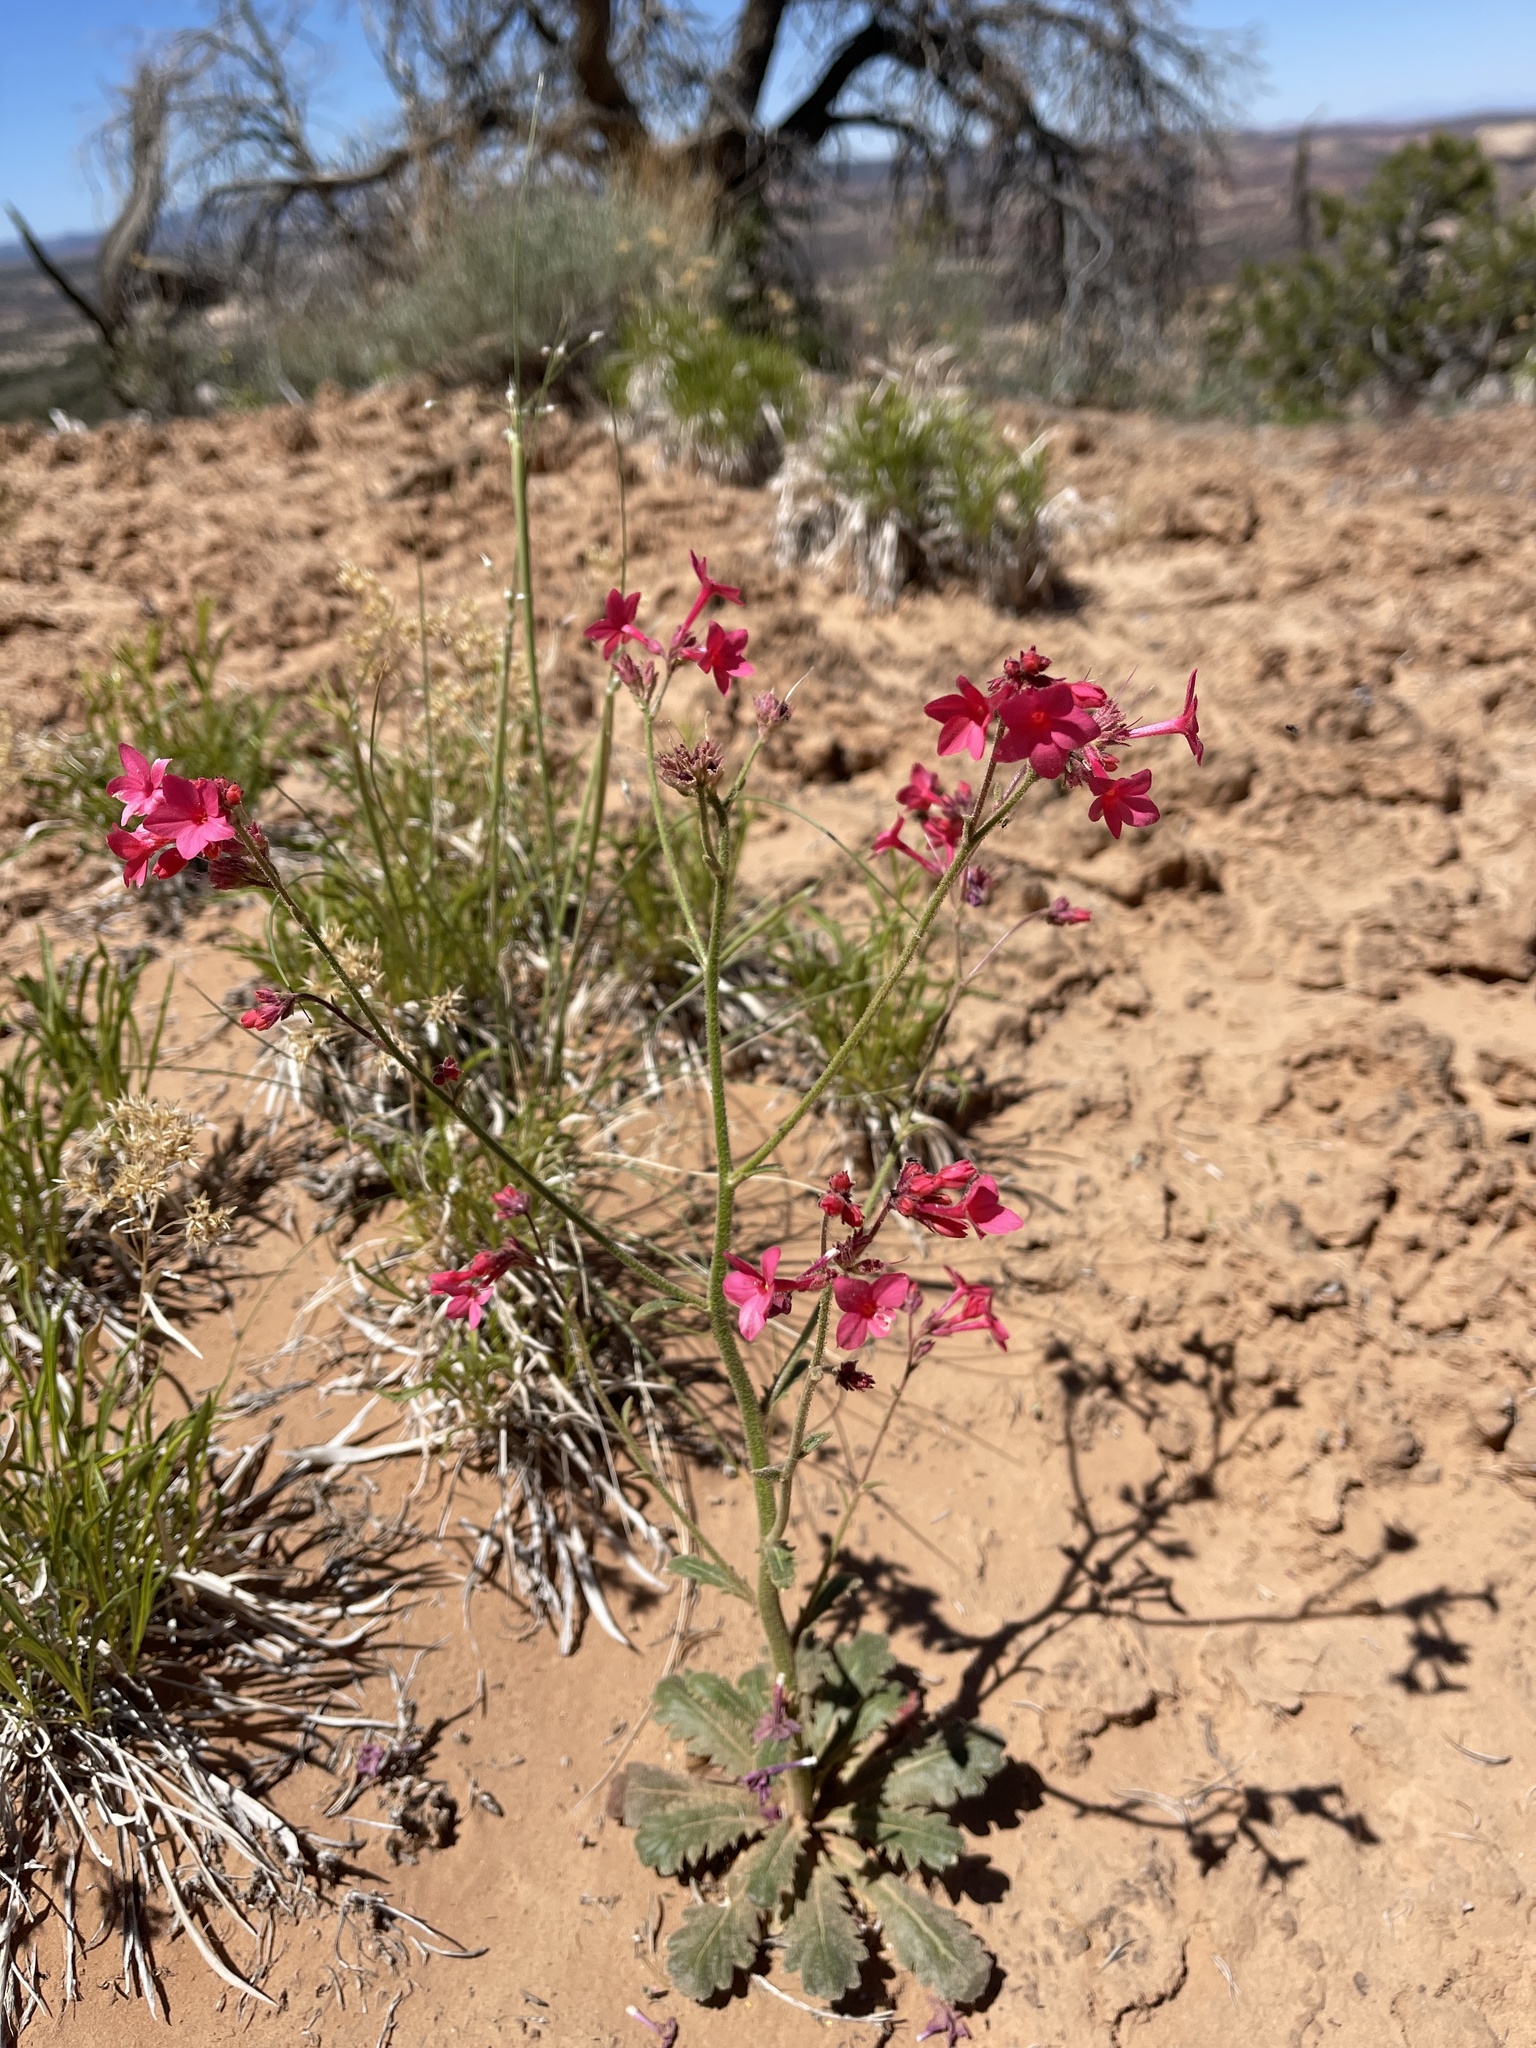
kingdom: Plantae
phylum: Tracheophyta
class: Magnoliopsida
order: Ericales
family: Polemoniaceae
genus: Aliciella
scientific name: Aliciella subnuda
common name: Coral gilia
